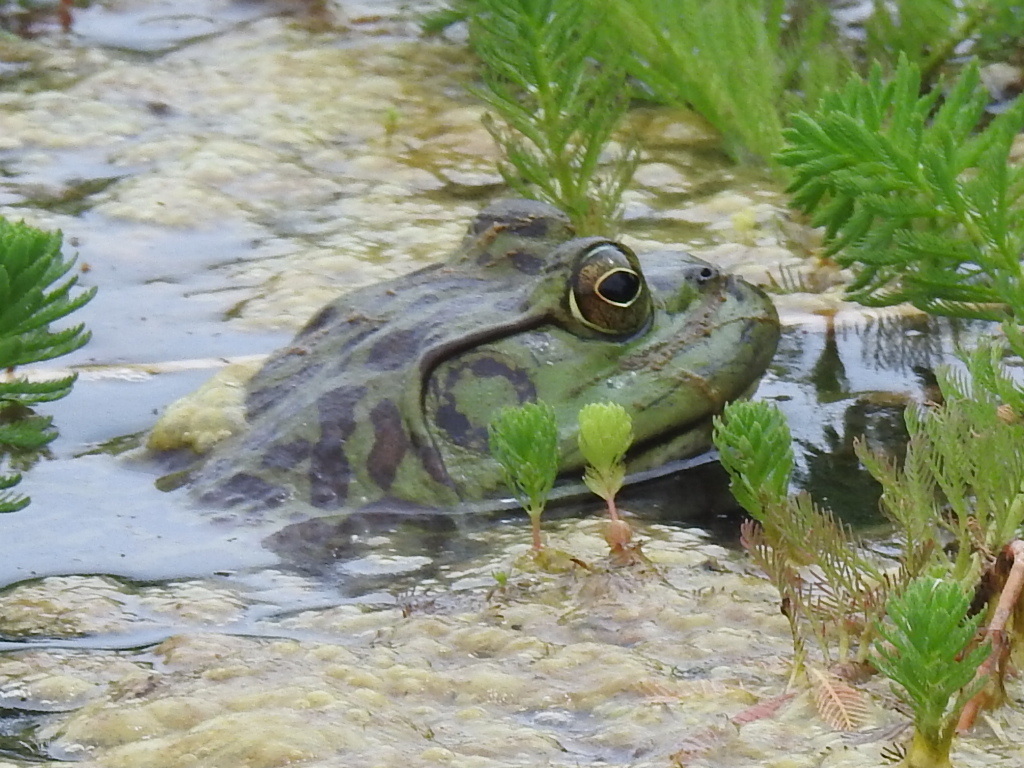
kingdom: Animalia
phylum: Chordata
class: Amphibia
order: Anura
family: Ranidae
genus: Lithobates
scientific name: Lithobates catesbeianus
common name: American bullfrog
